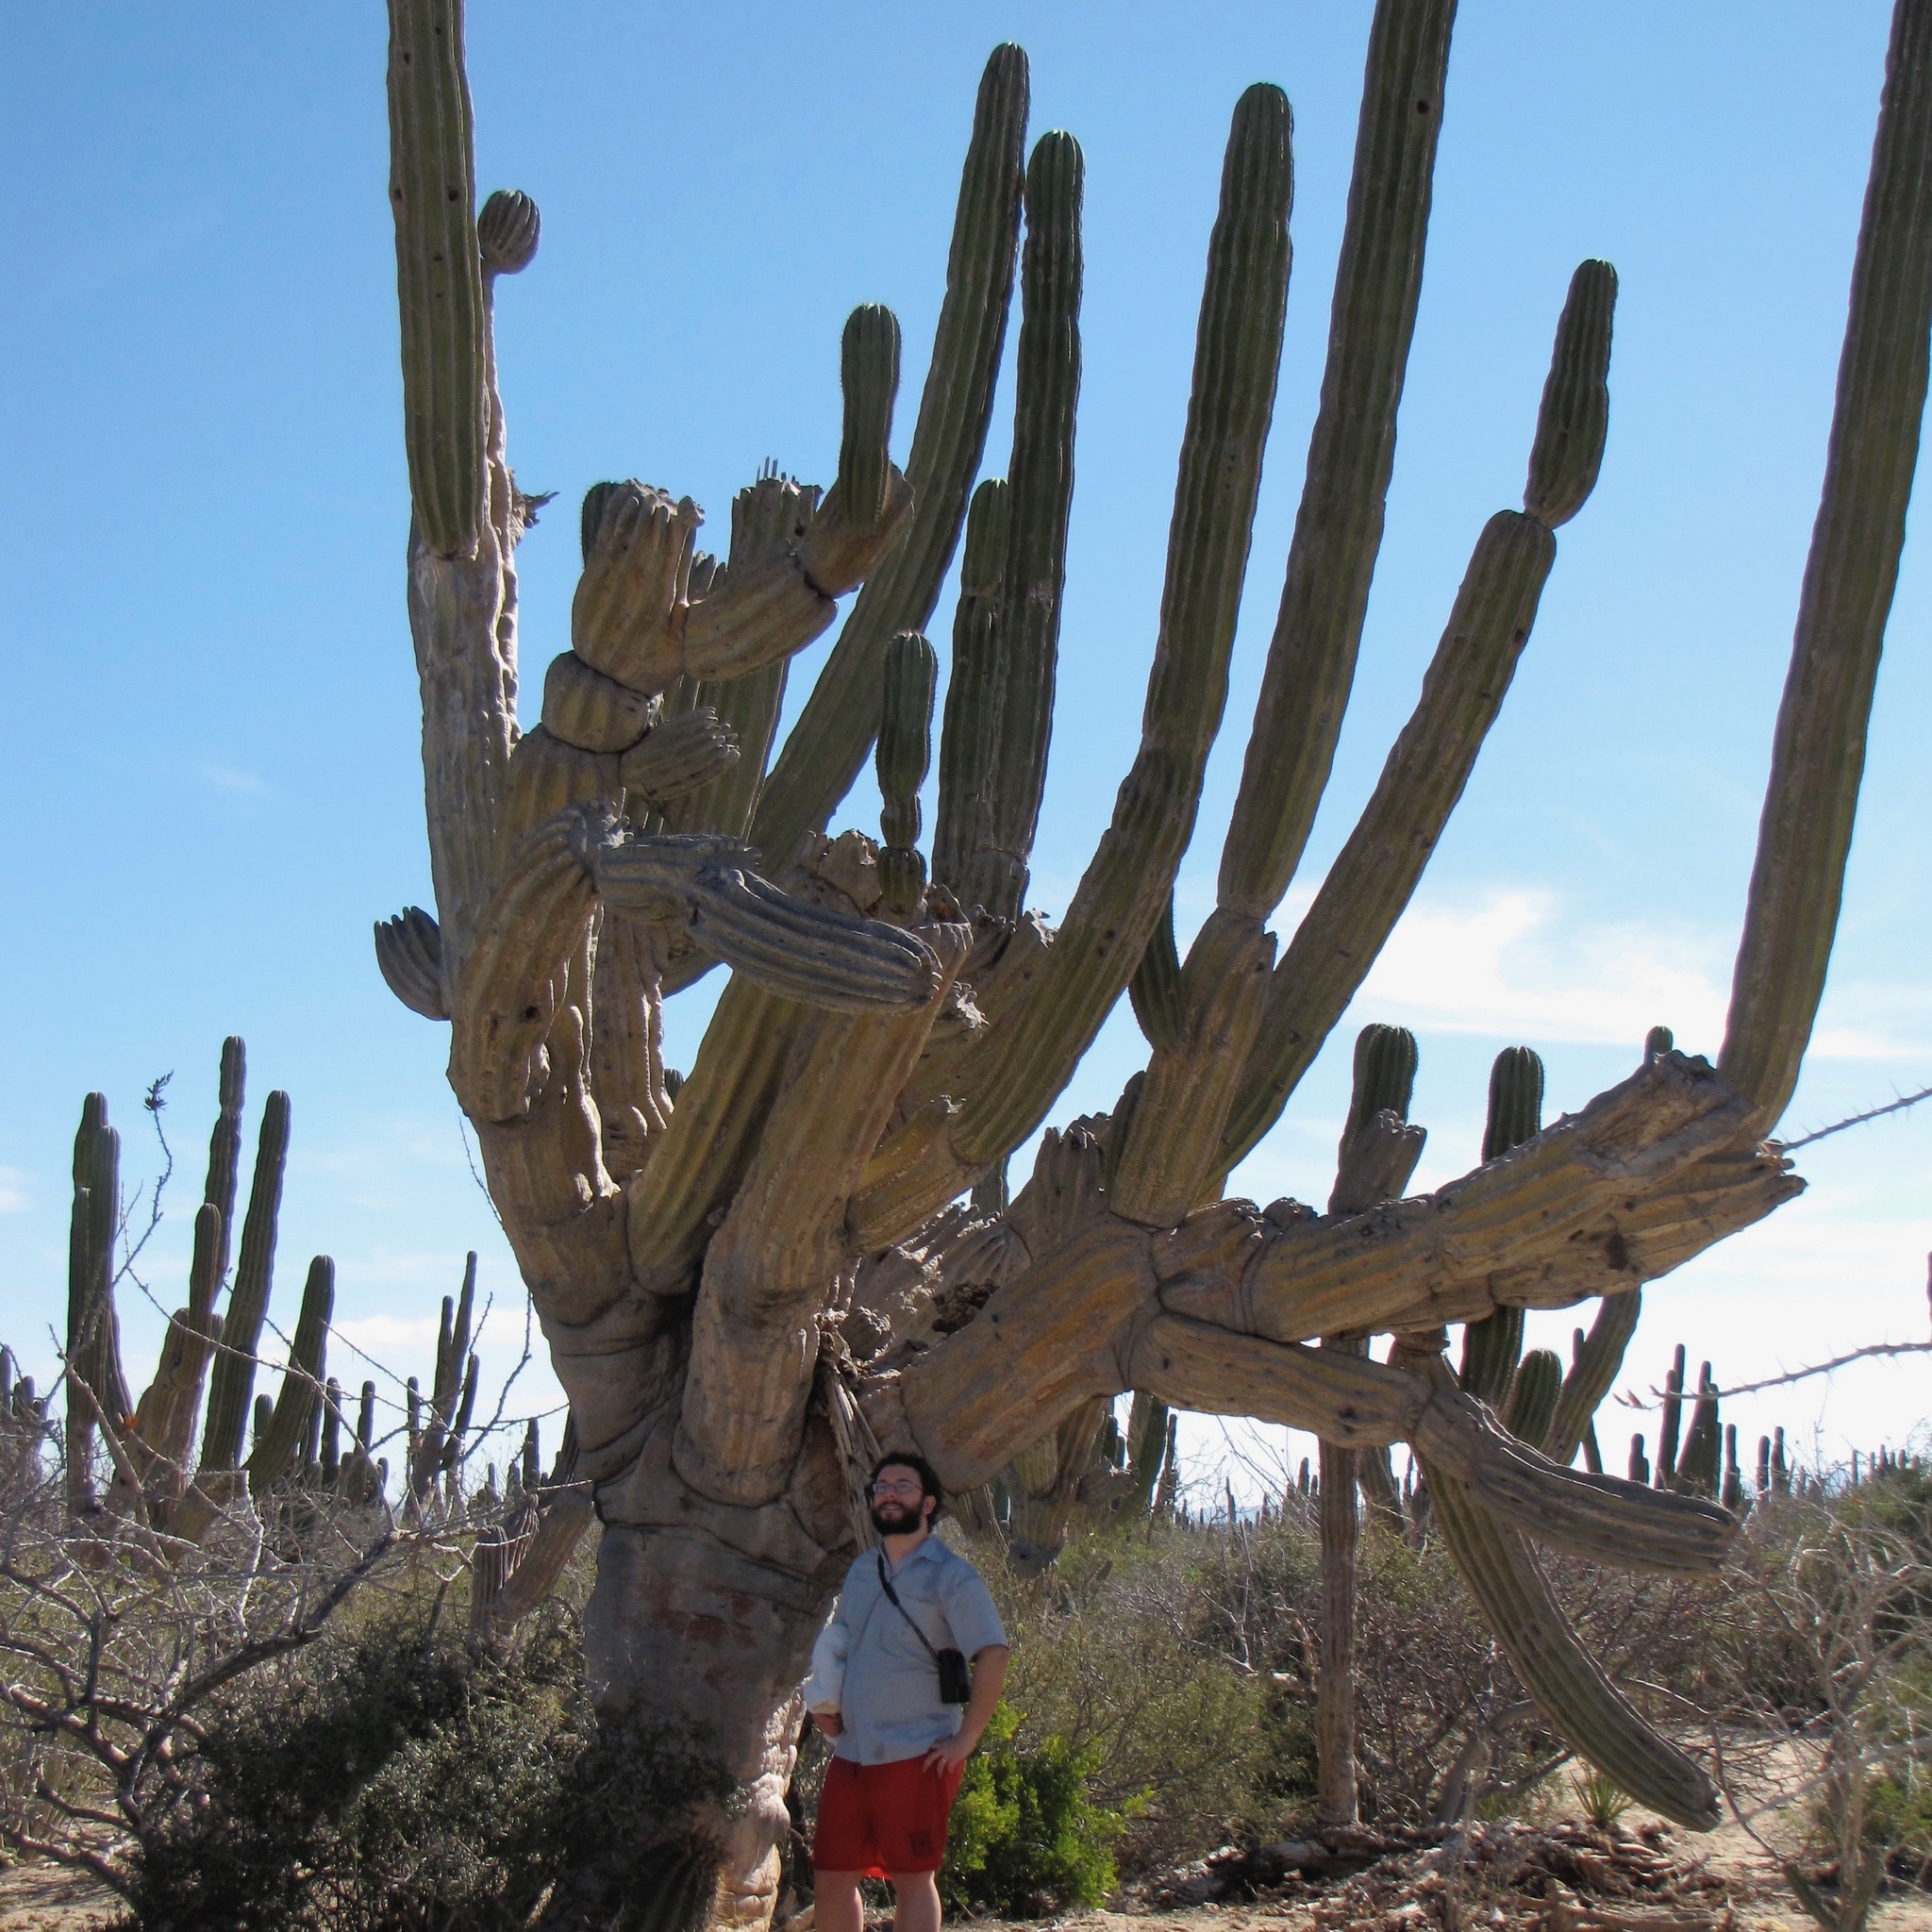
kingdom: Plantae
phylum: Tracheophyta
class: Magnoliopsida
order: Caryophyllales
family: Cactaceae
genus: Pachycereus
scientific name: Pachycereus pringlei
